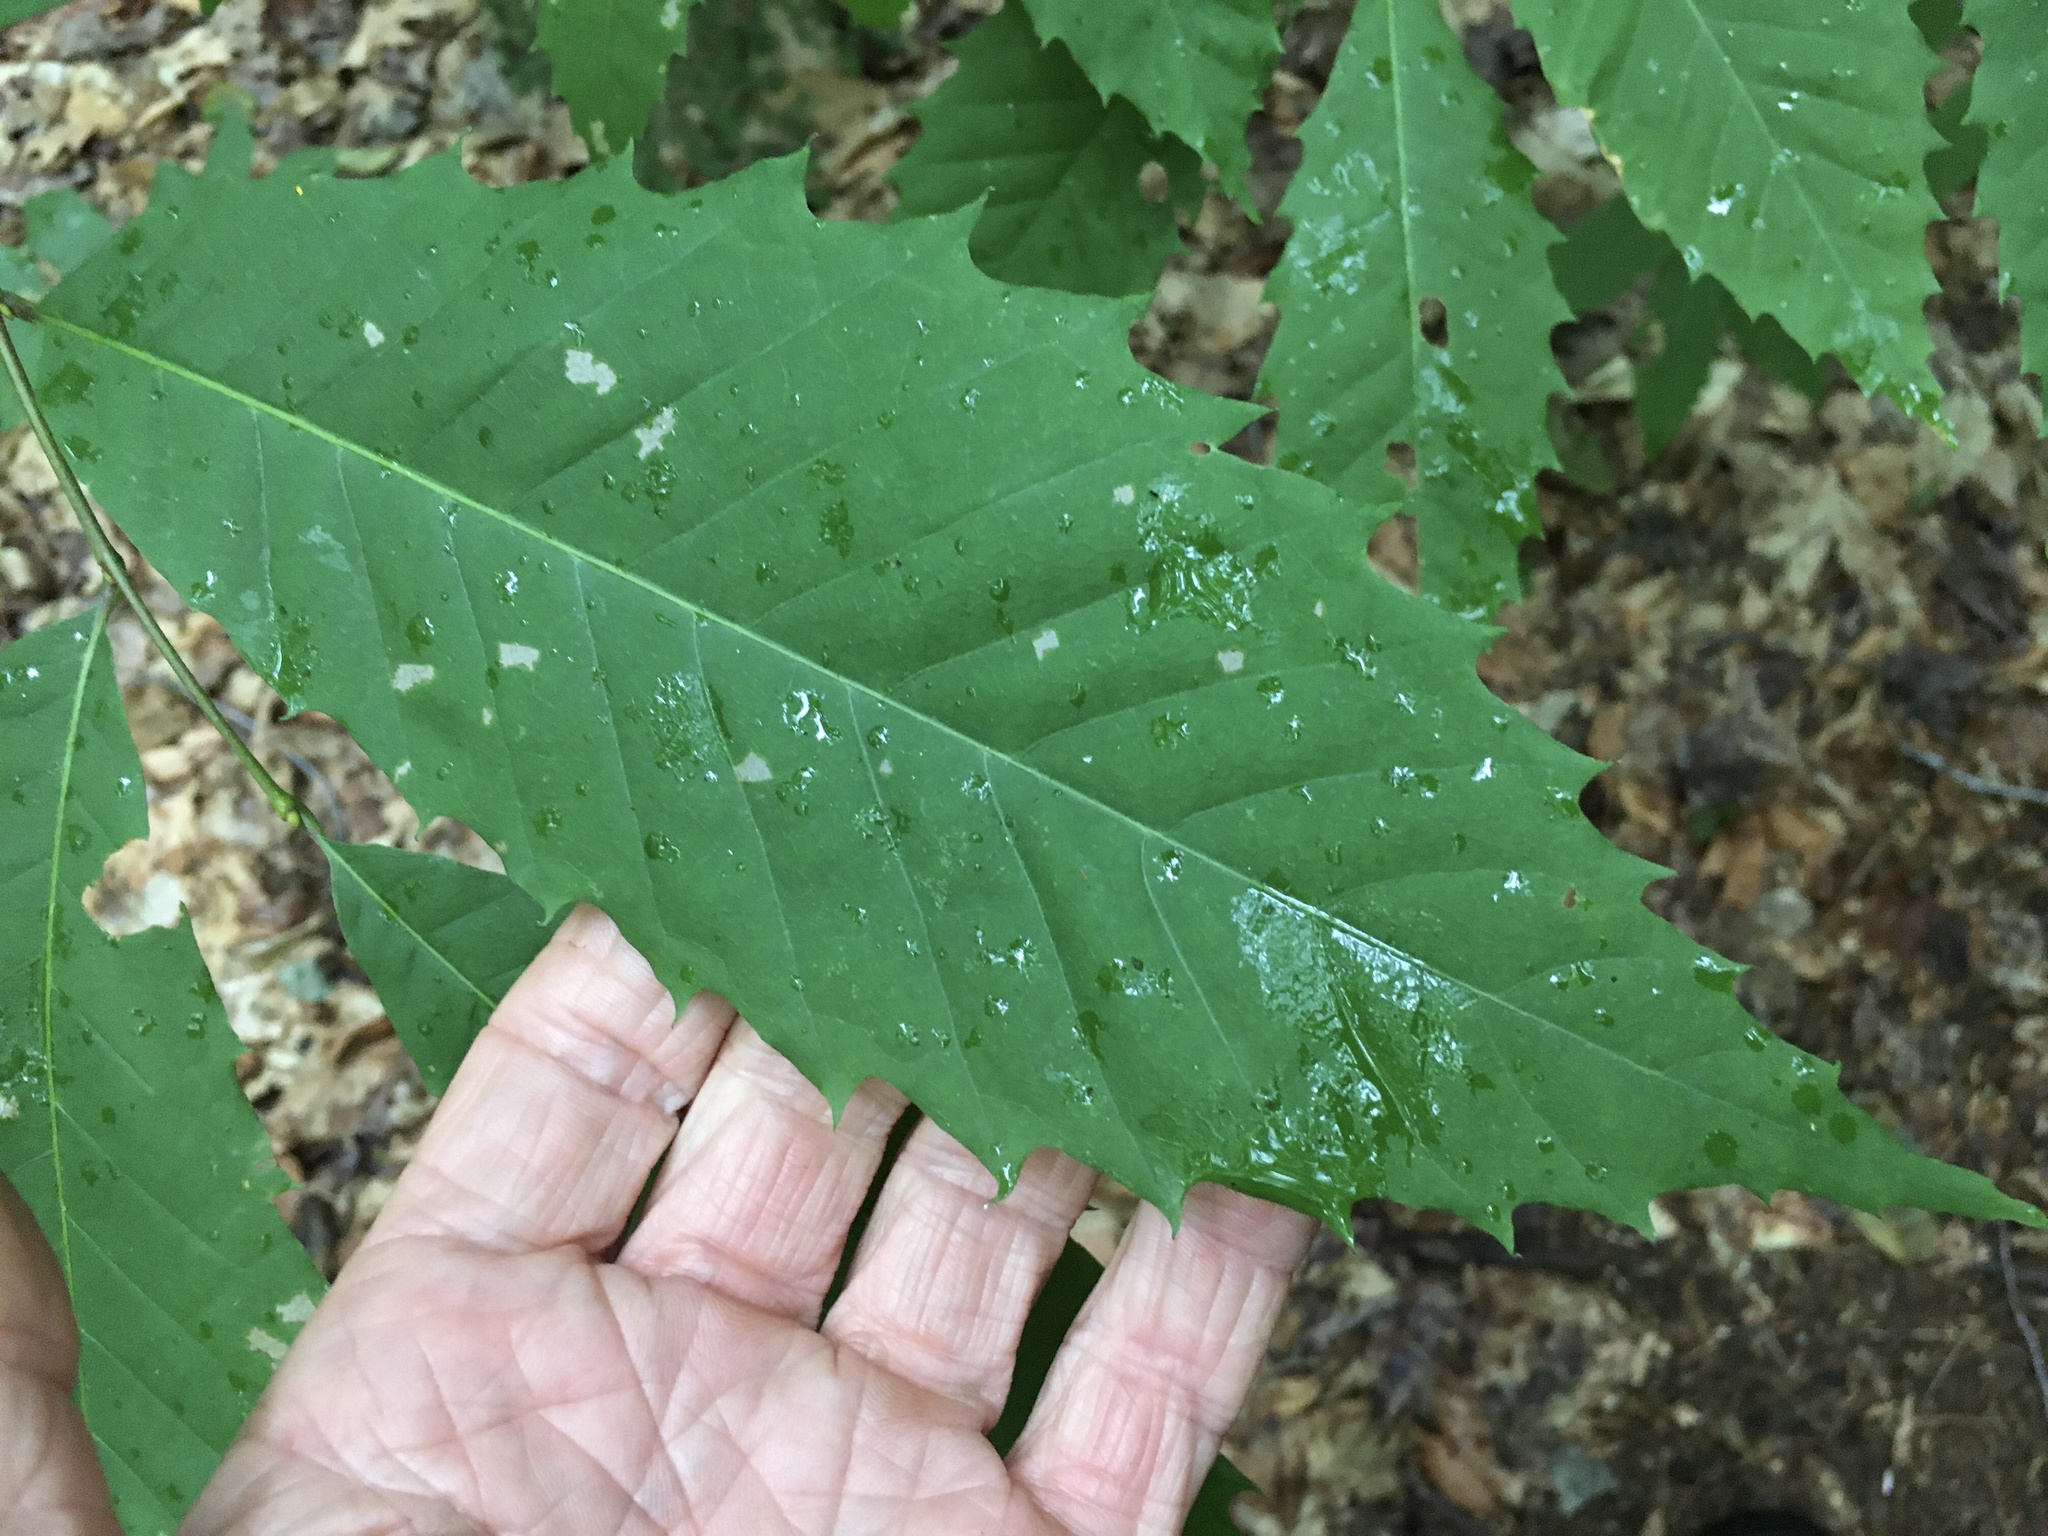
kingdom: Plantae
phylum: Tracheophyta
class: Magnoliopsida
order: Fagales
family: Fagaceae
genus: Castanea
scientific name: Castanea dentata
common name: American chestnut
